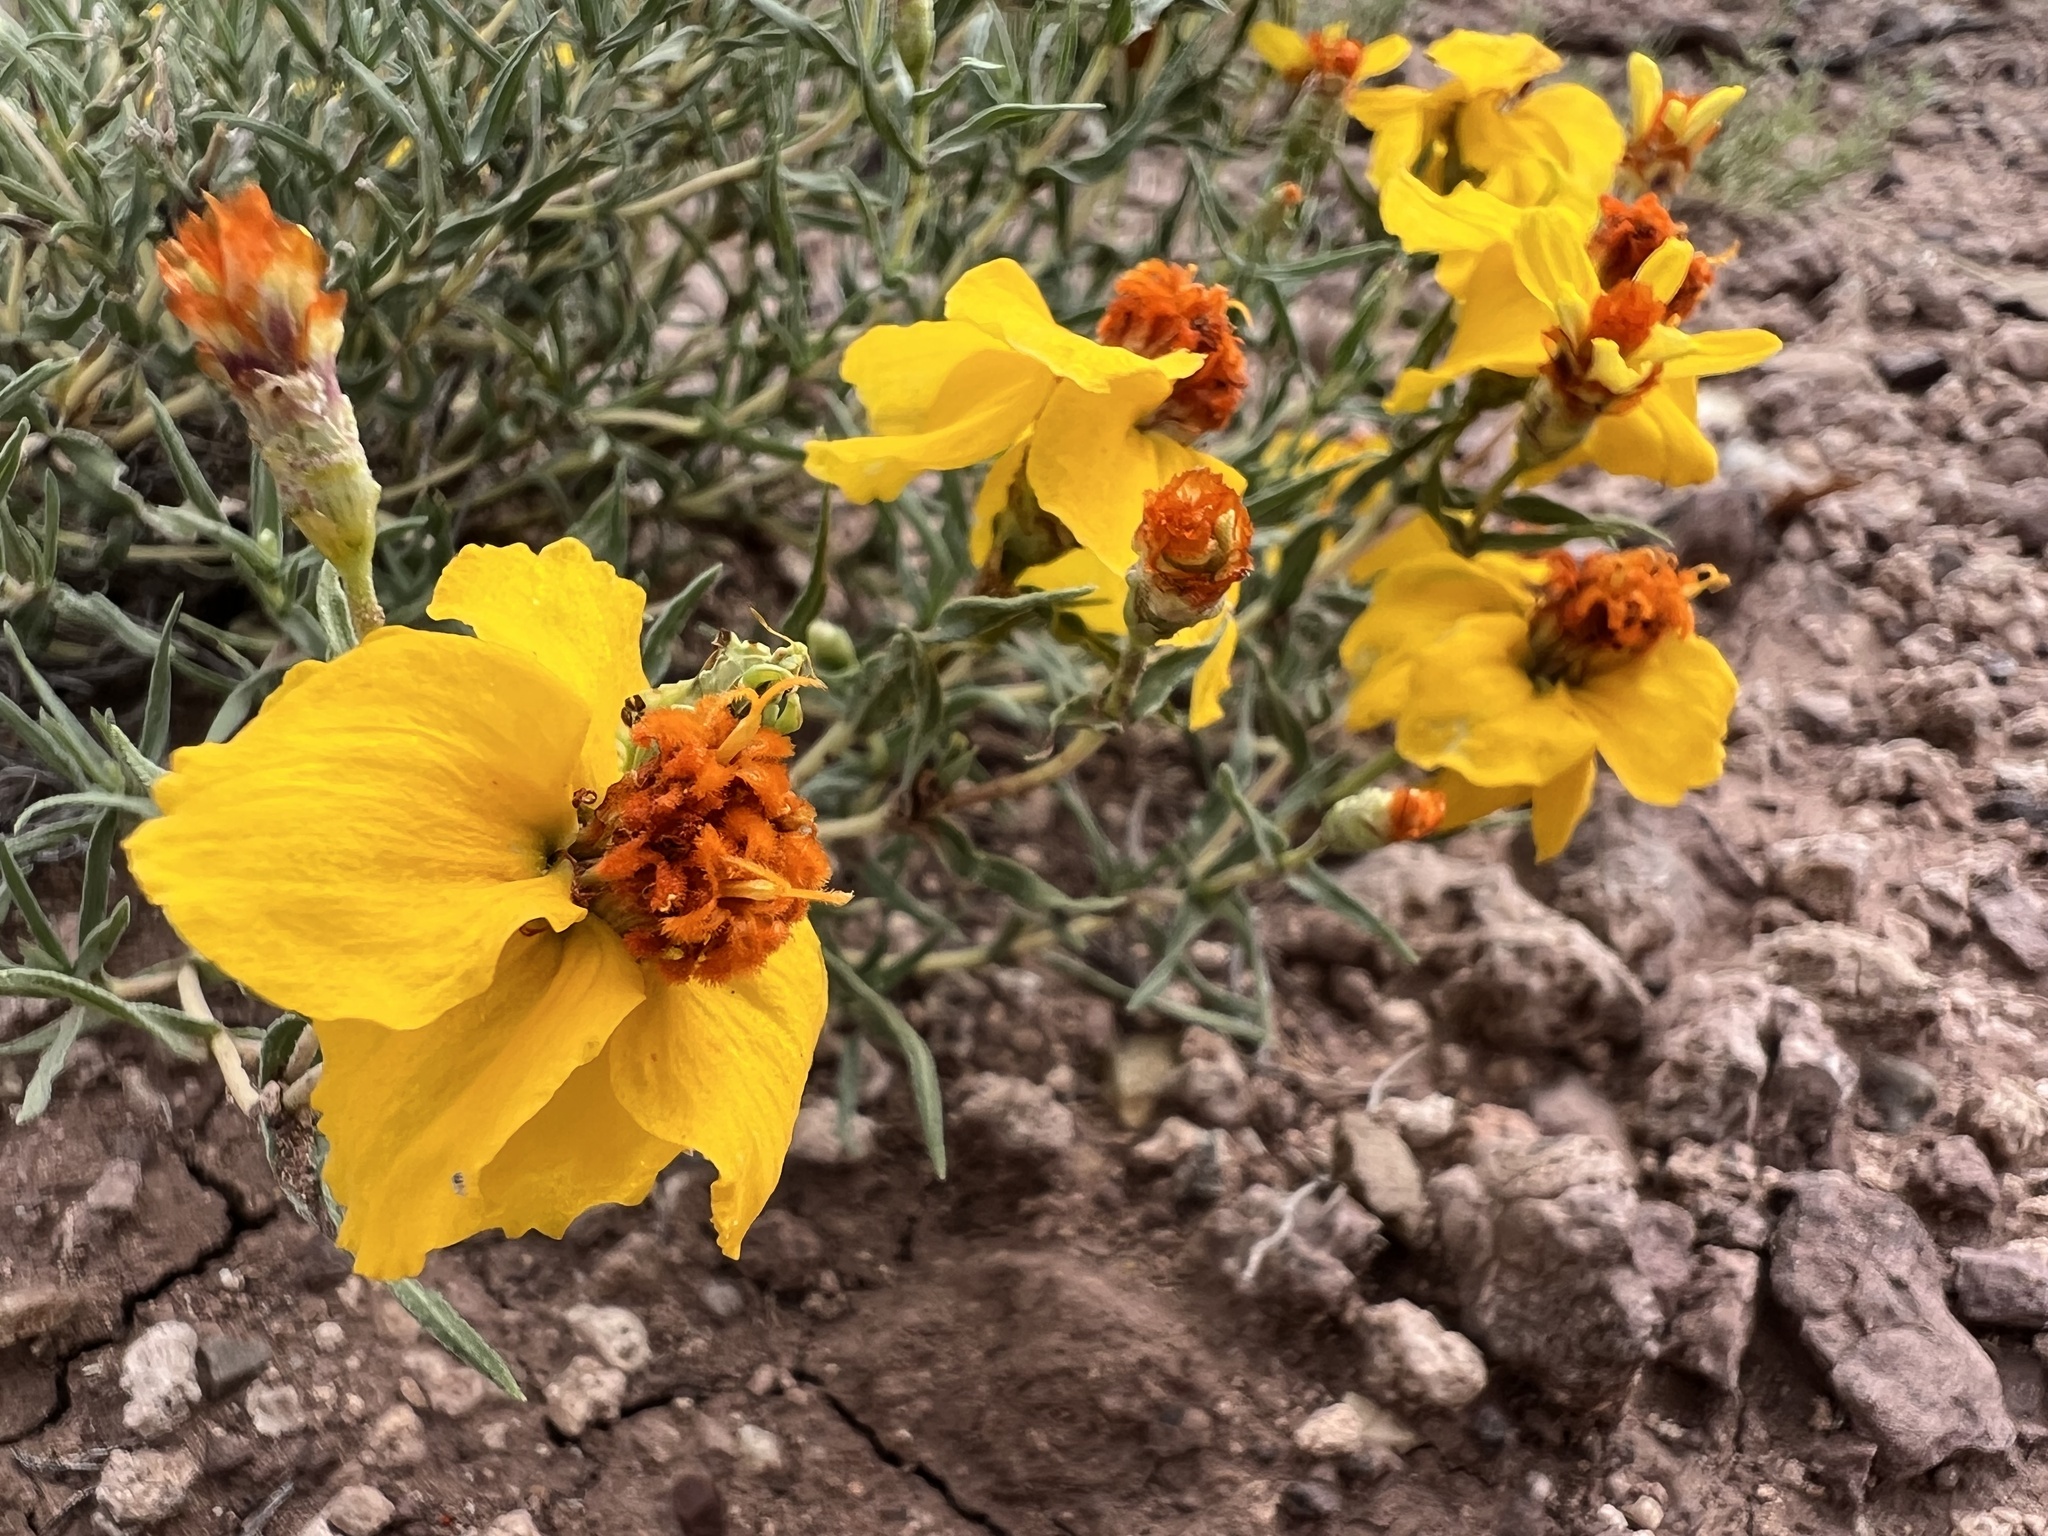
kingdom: Plantae
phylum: Tracheophyta
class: Magnoliopsida
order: Asterales
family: Asteraceae
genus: Zinnia
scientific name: Zinnia grandiflora
